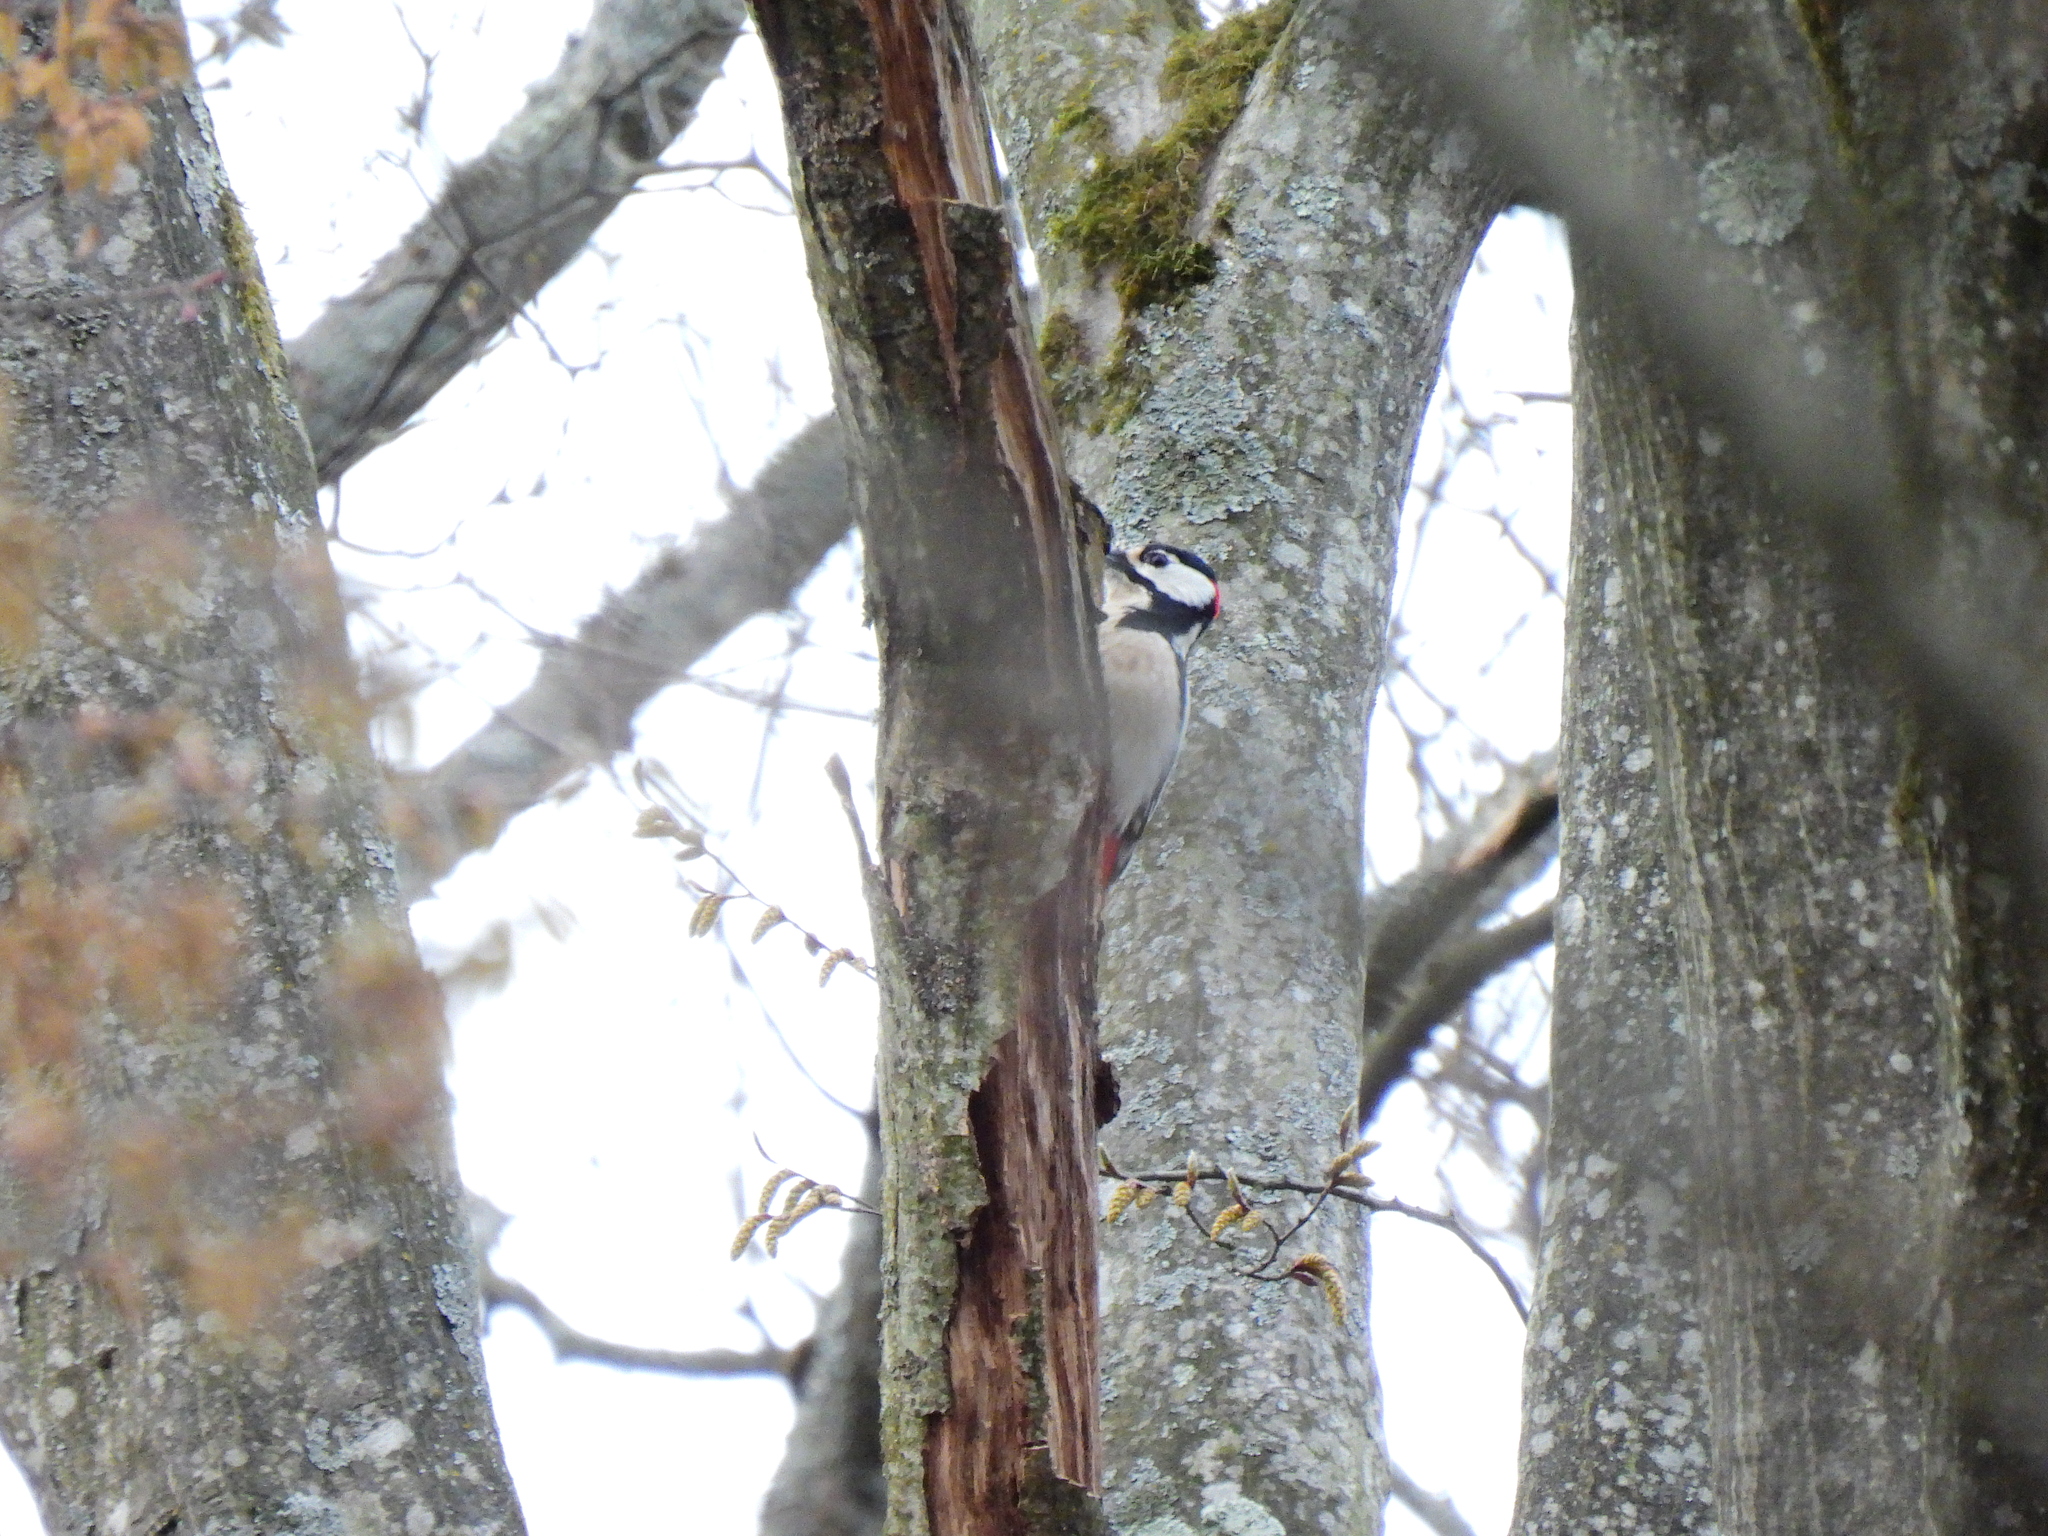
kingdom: Animalia
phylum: Chordata
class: Aves
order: Piciformes
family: Picidae
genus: Dendrocopos
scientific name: Dendrocopos major
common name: Great spotted woodpecker
